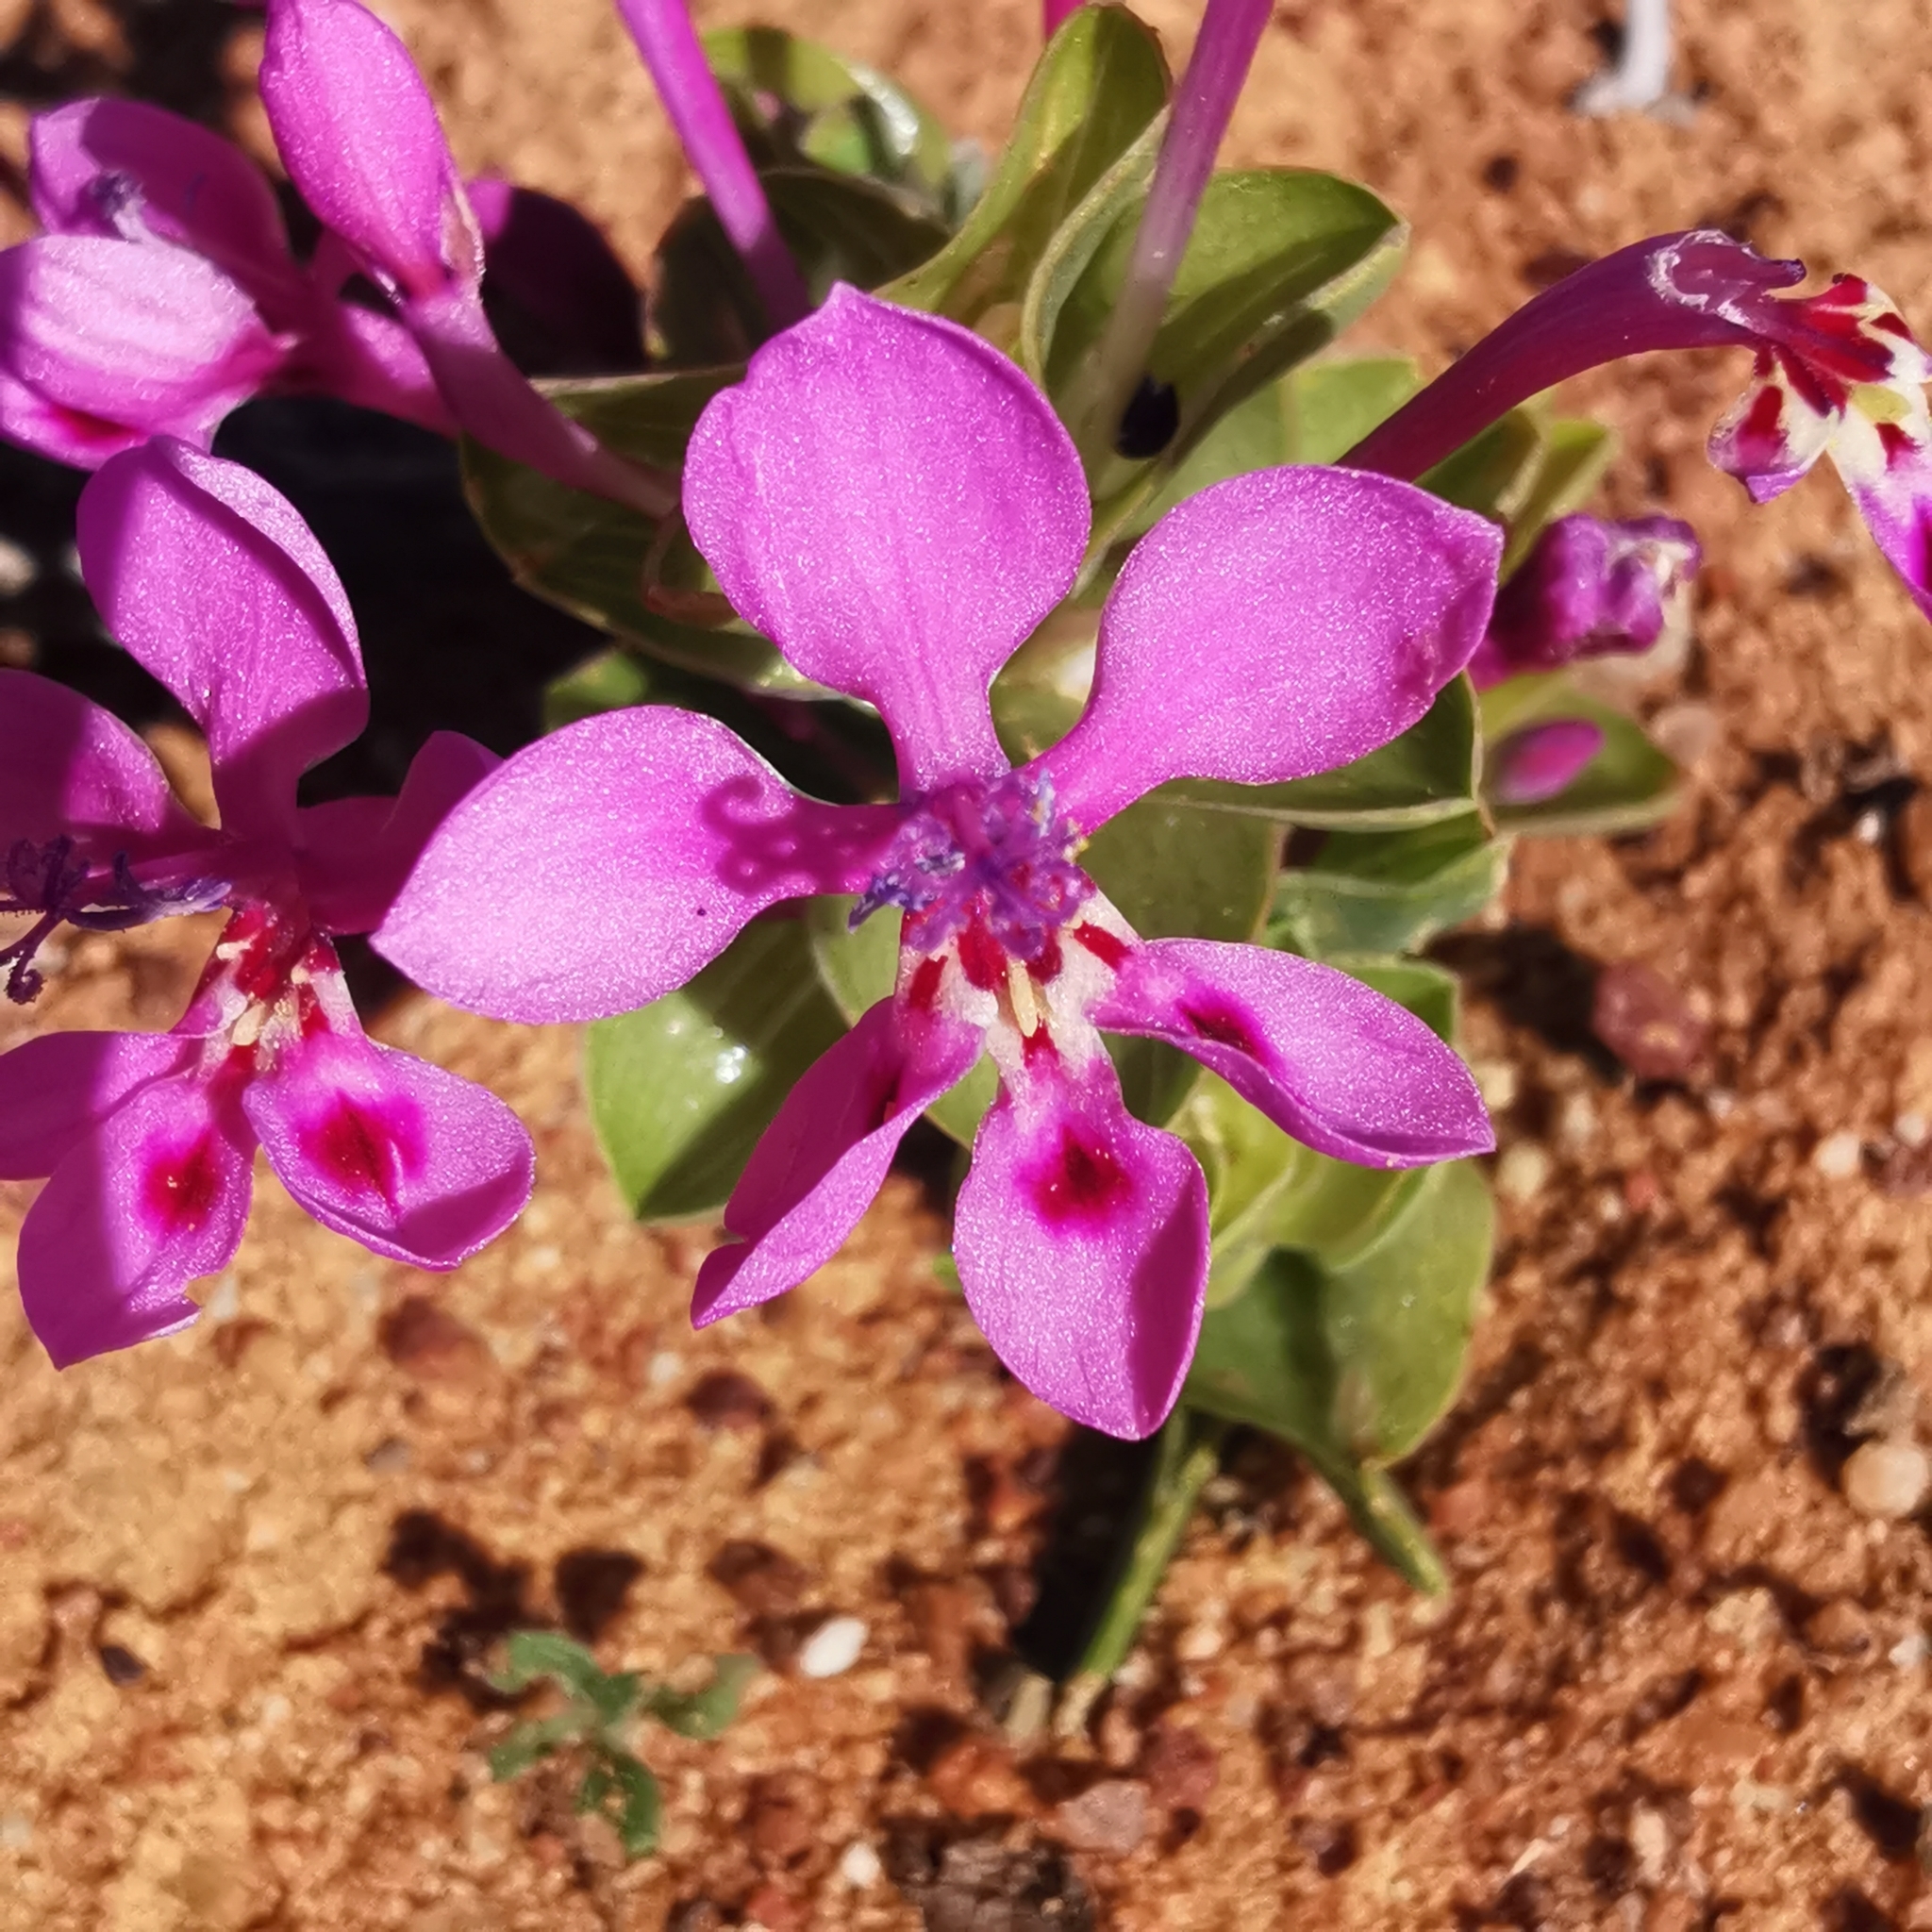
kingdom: Plantae
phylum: Tracheophyta
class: Liliopsida
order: Asparagales
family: Iridaceae
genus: Lapeirousia
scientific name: Lapeirousia pyramidalis
